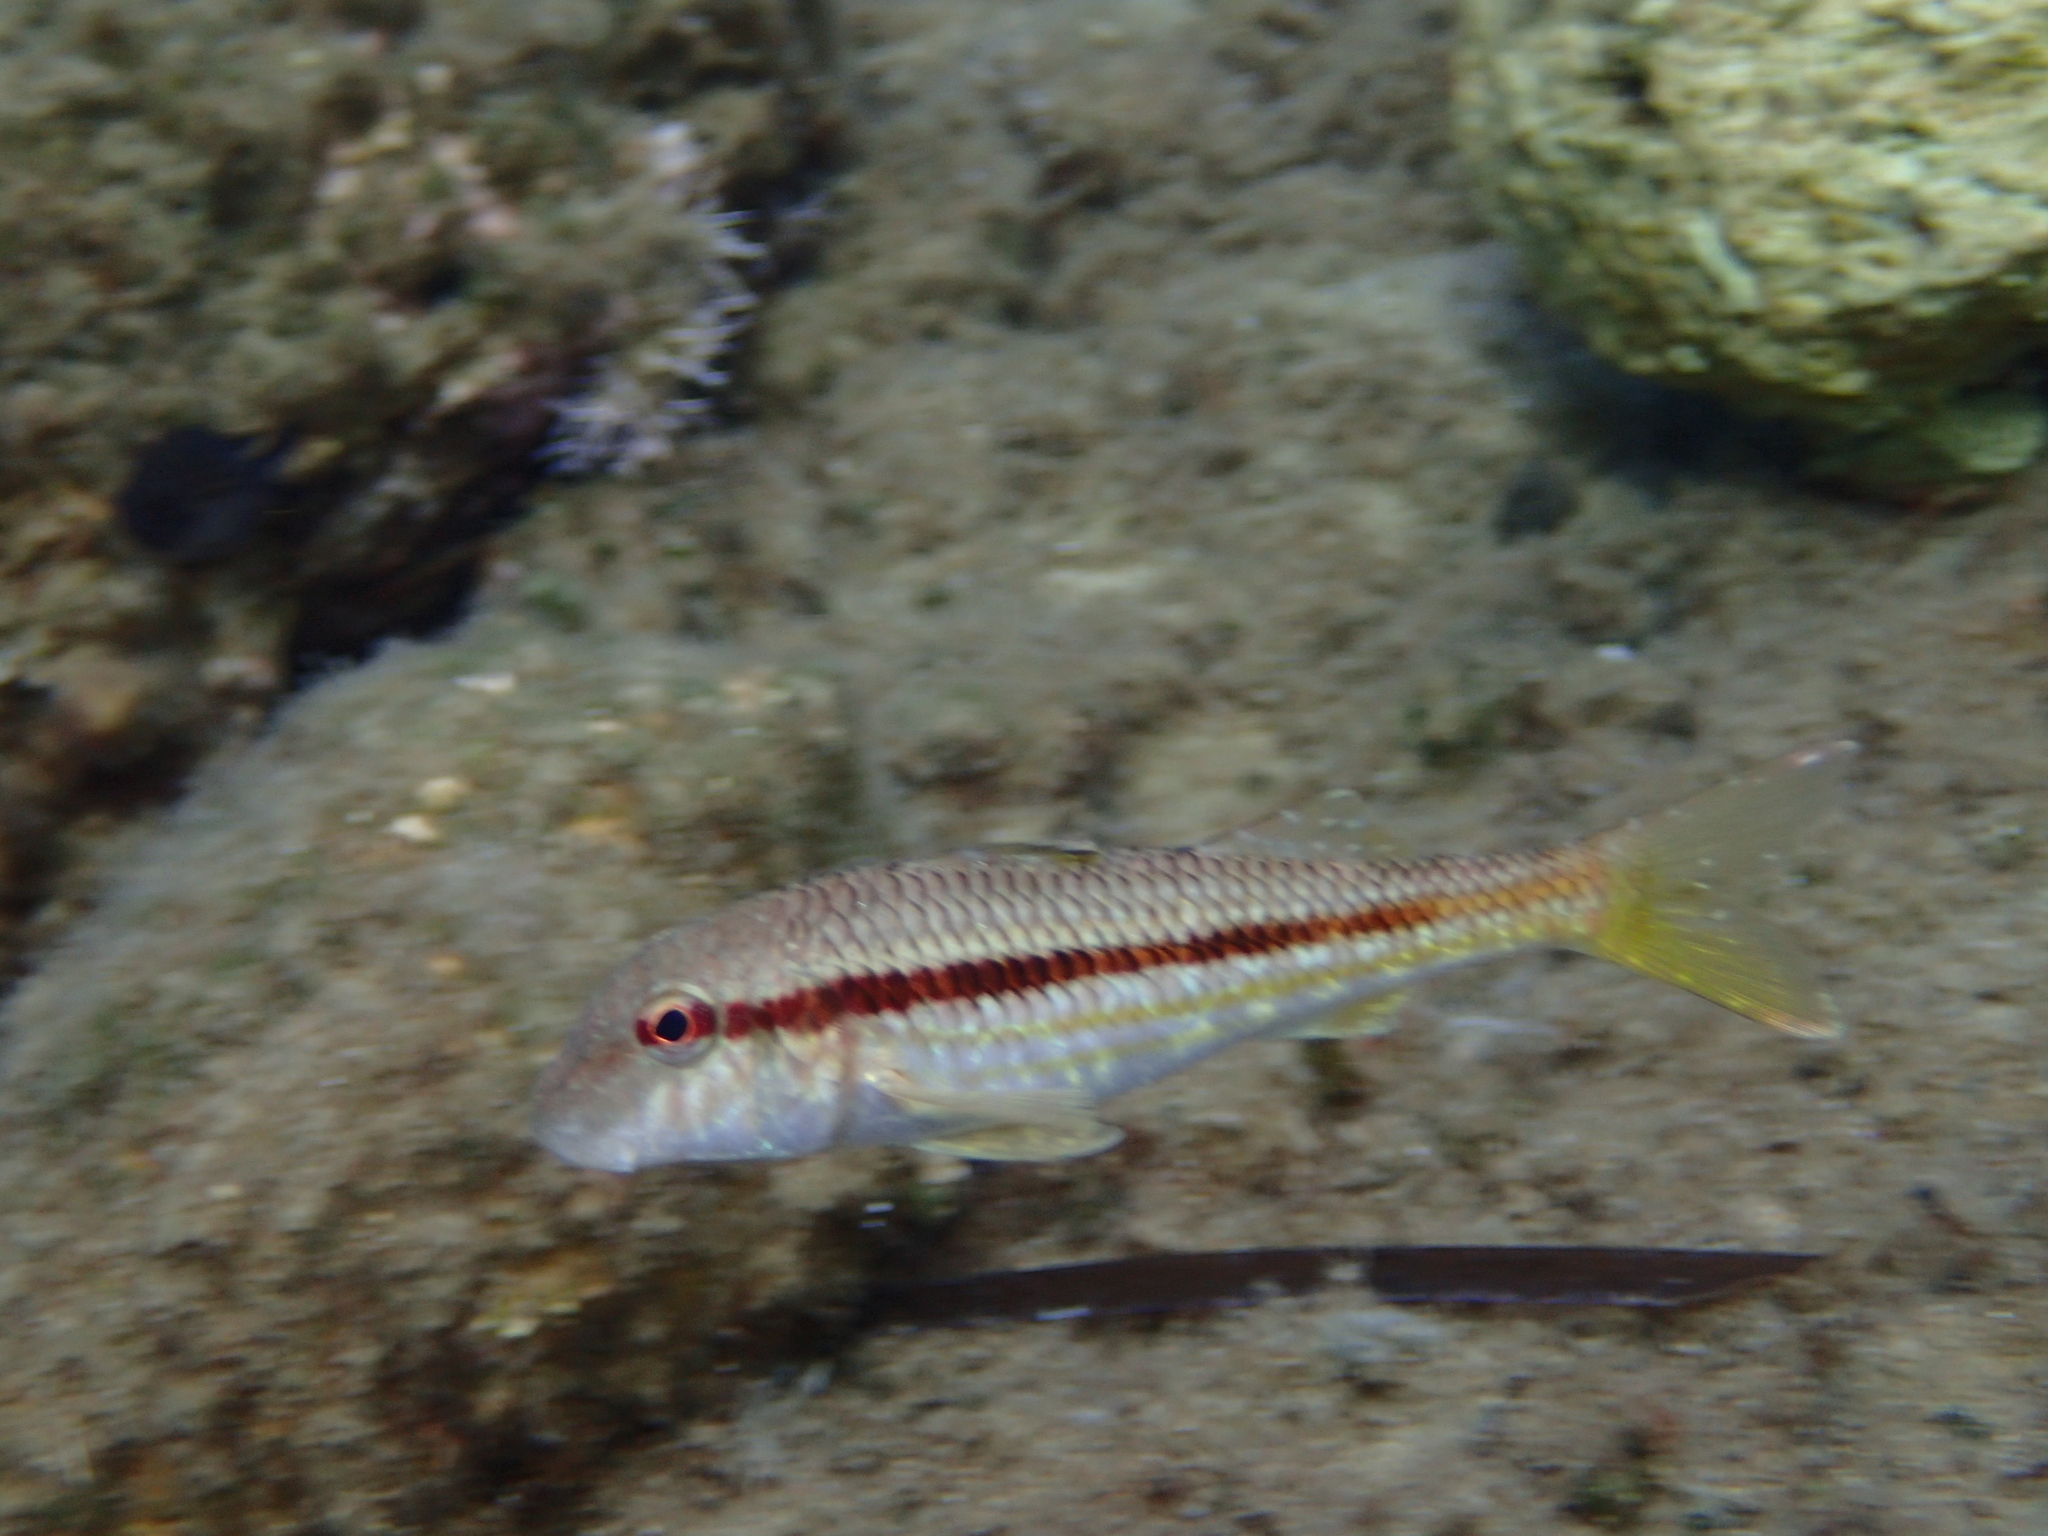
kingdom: Animalia
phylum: Chordata
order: Perciformes
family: Mullidae
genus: Mullus
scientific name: Mullus surmuletus
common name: Red mullet
